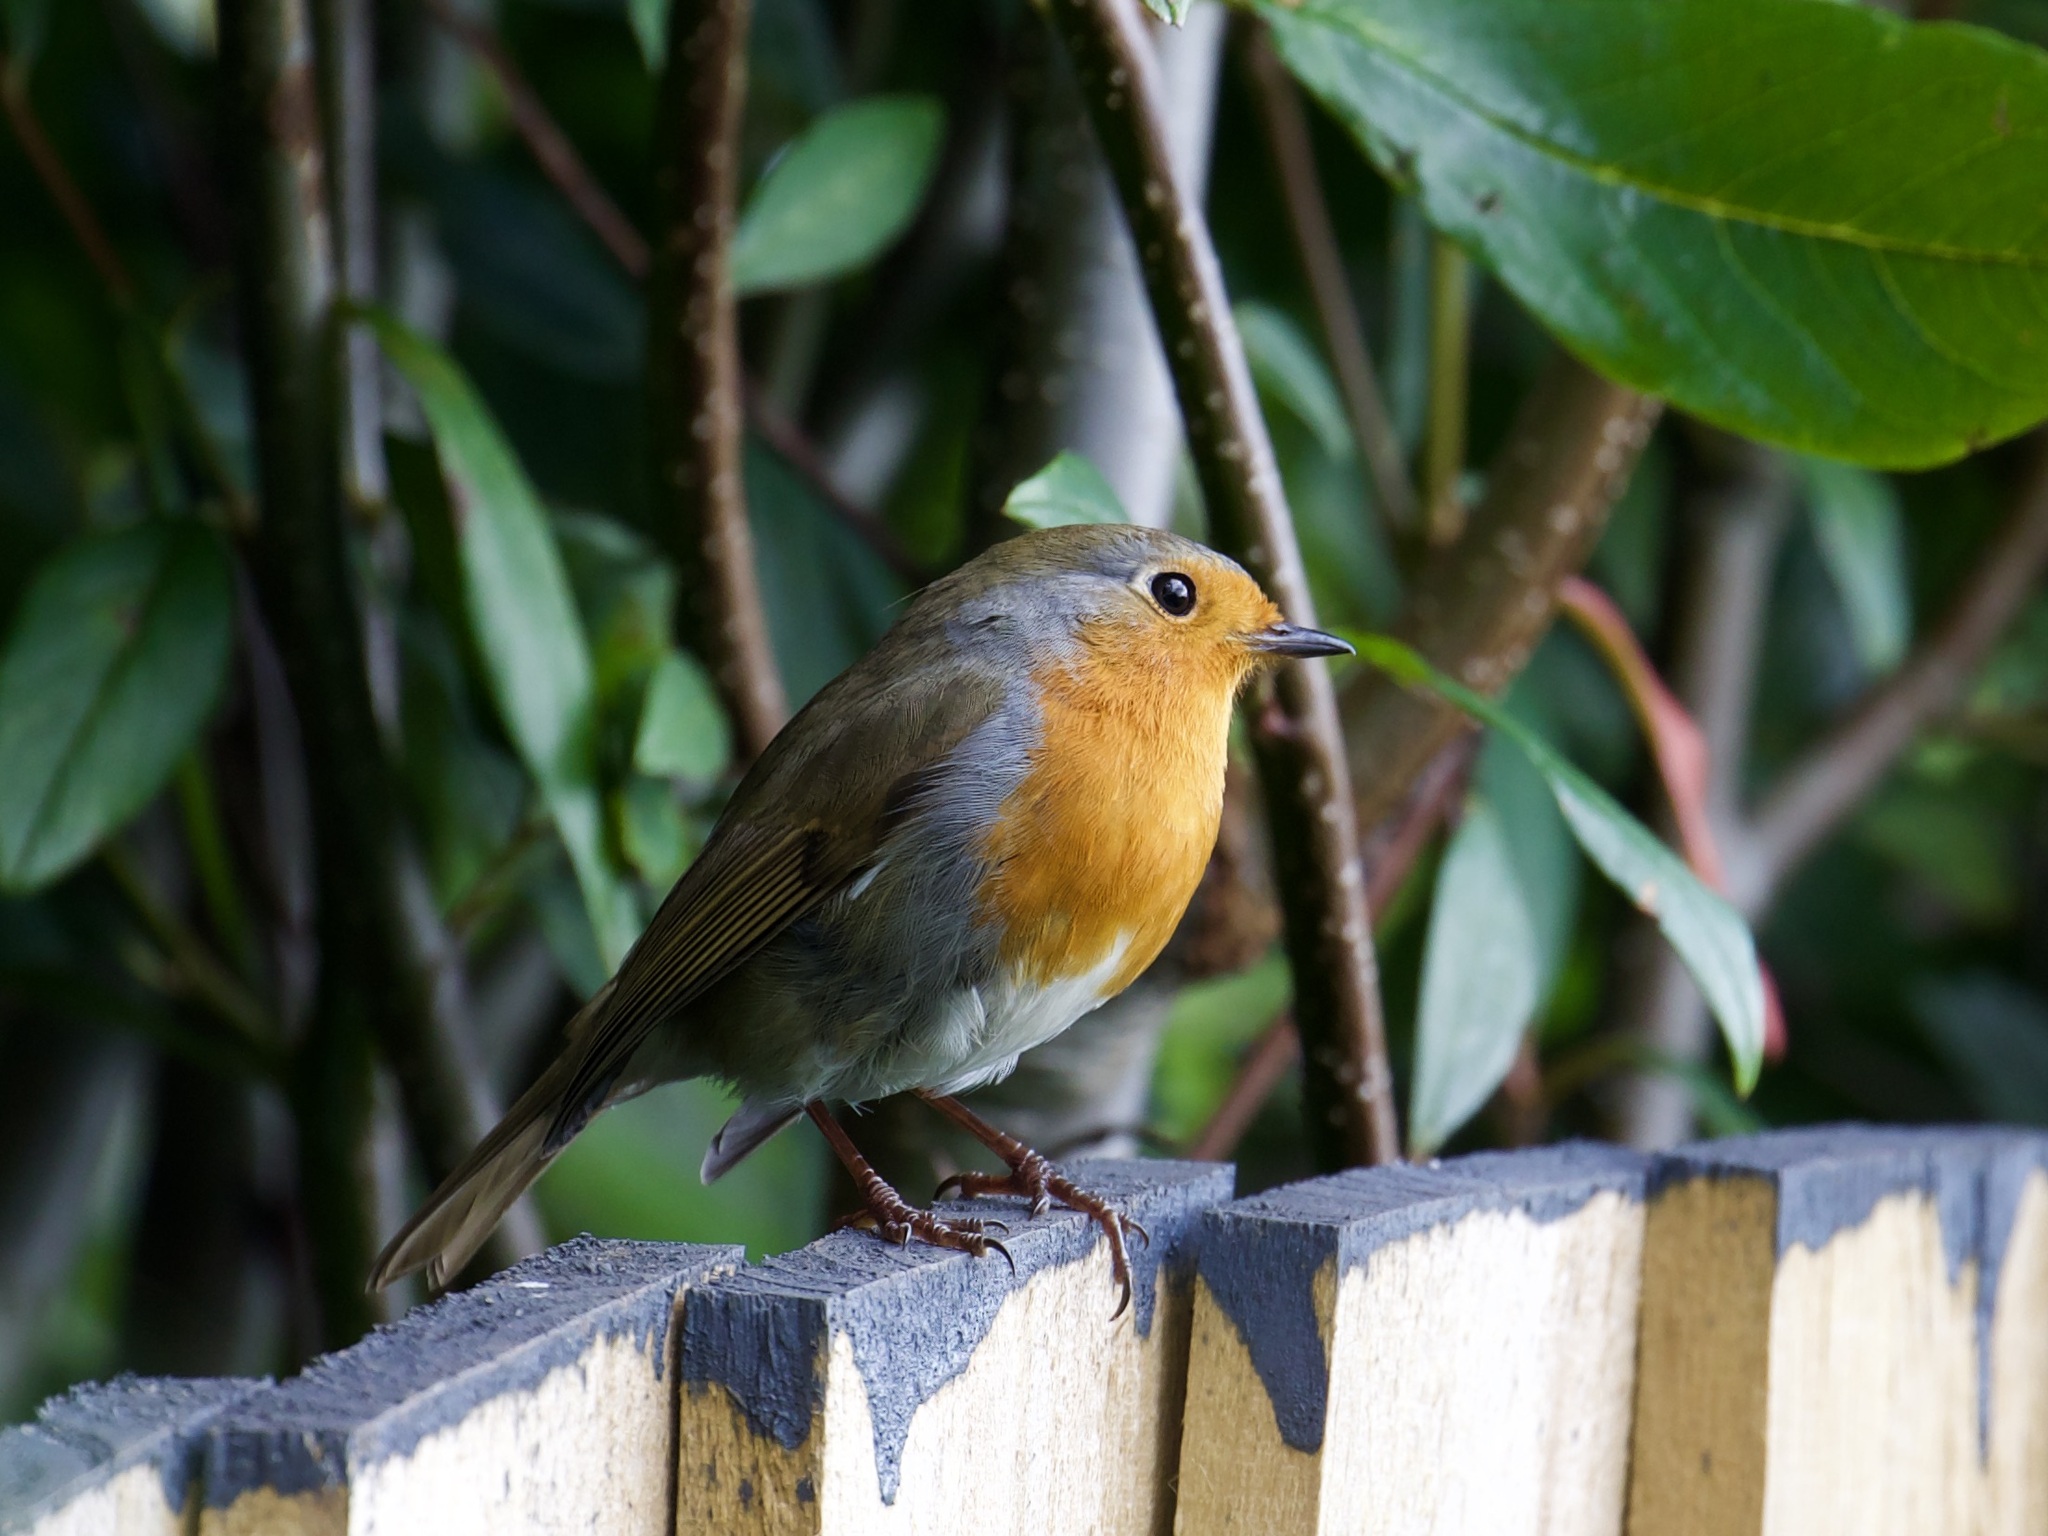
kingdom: Animalia
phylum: Chordata
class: Aves
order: Passeriformes
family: Muscicapidae
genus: Erithacus
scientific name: Erithacus rubecula
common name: European robin
